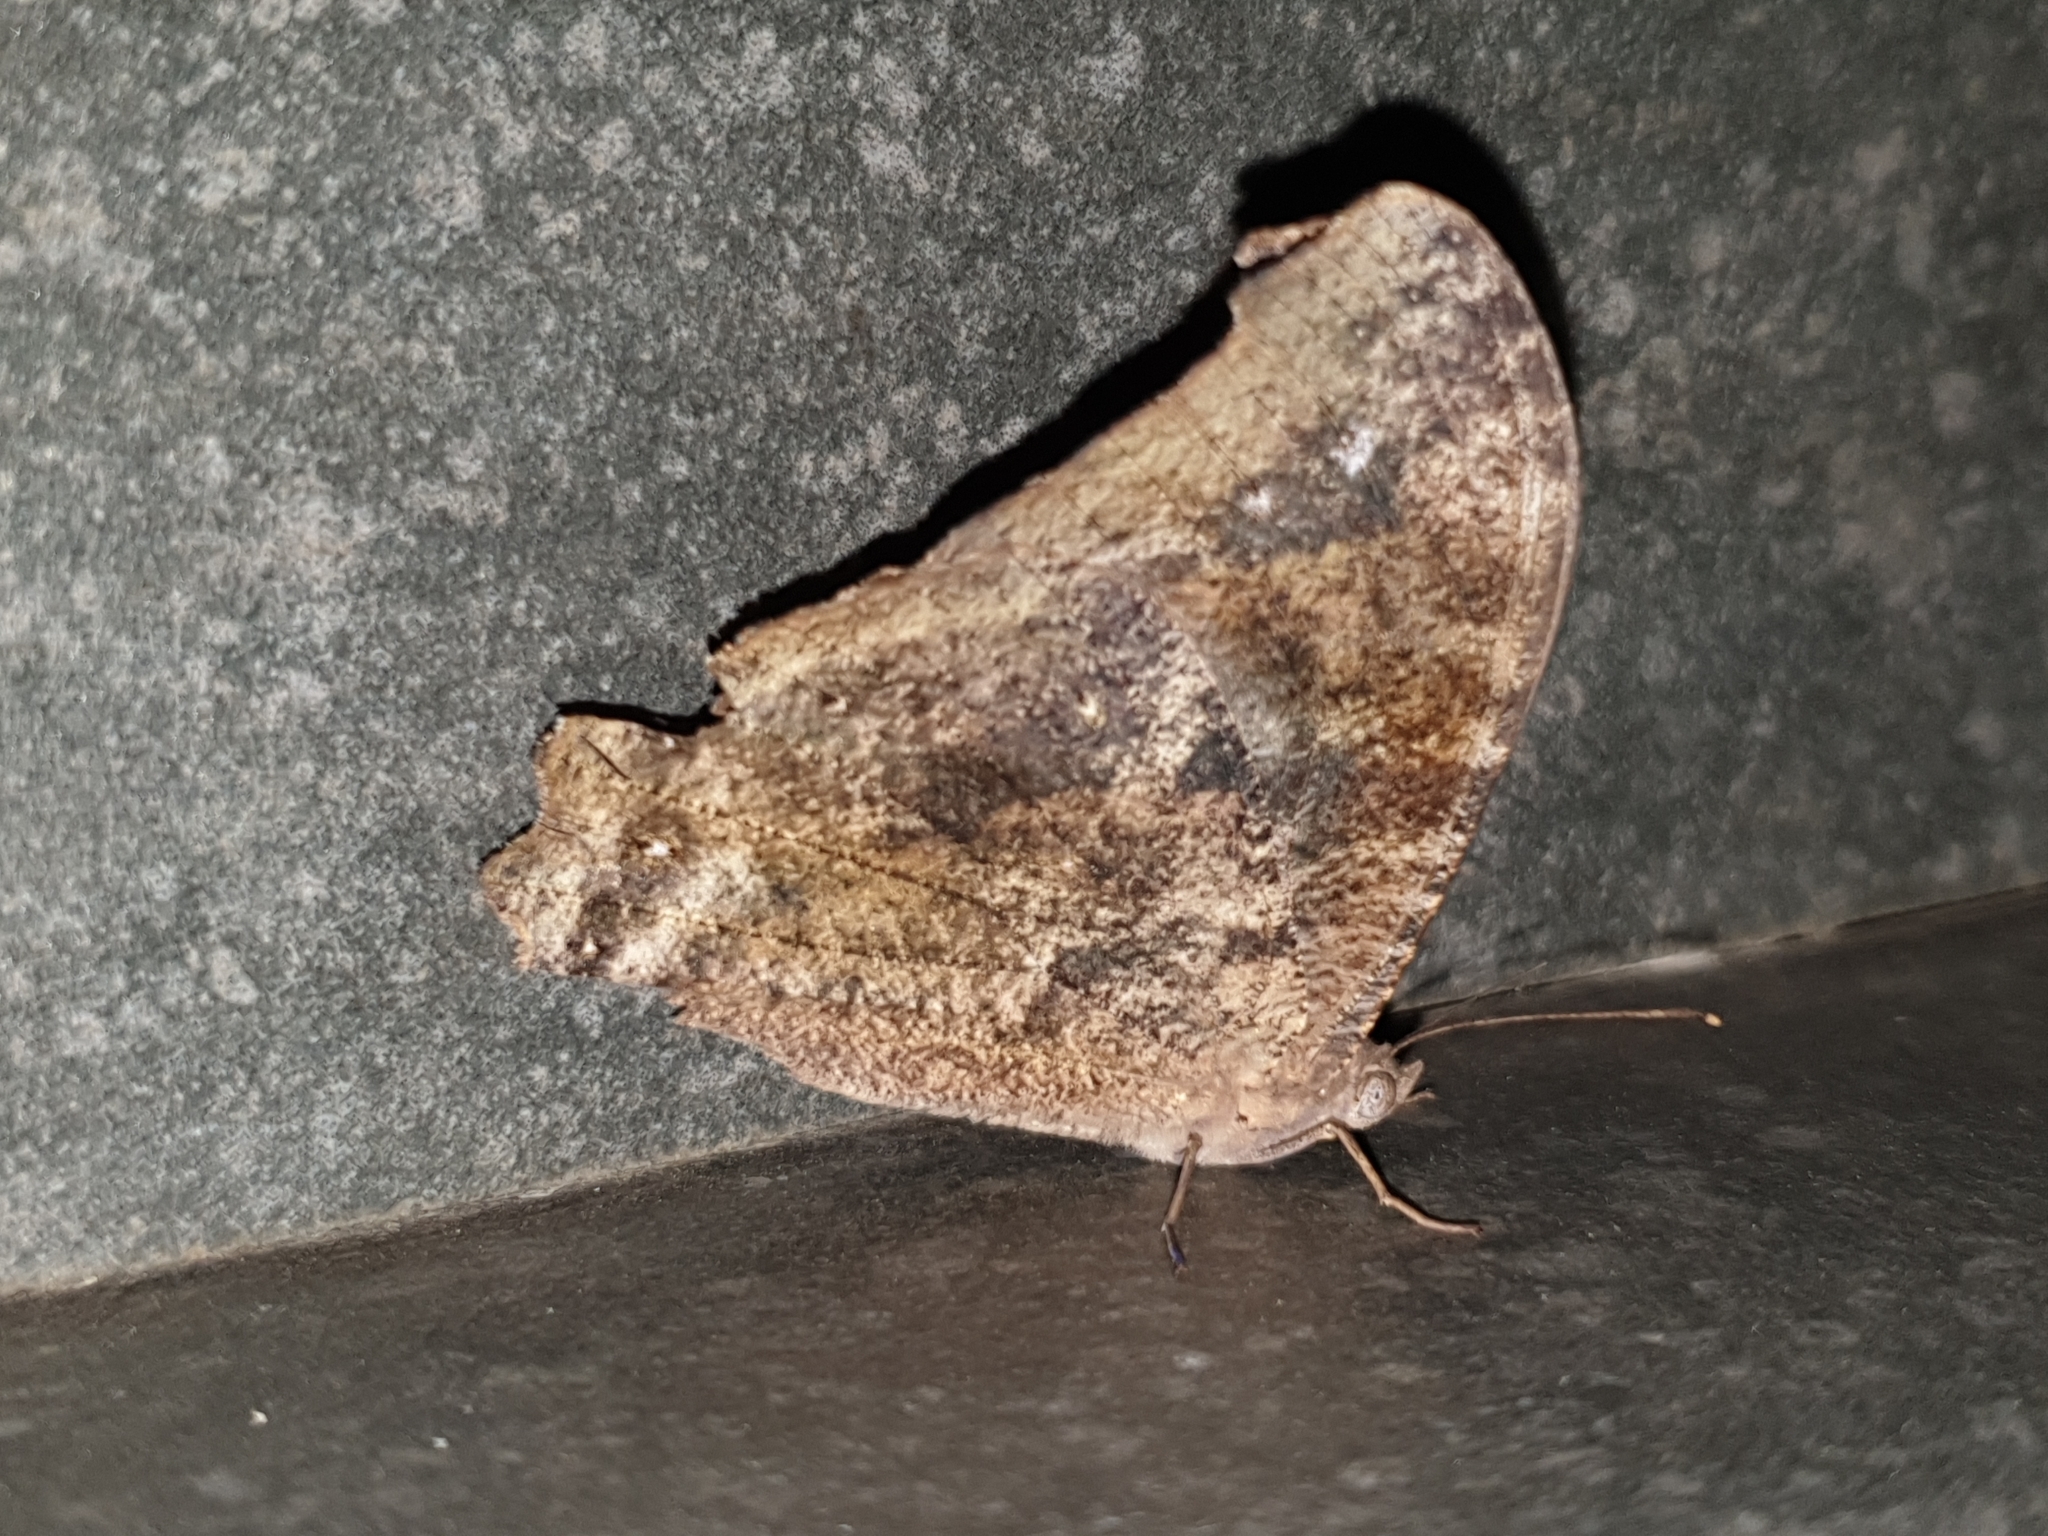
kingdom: Animalia
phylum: Arthropoda
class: Insecta
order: Lepidoptera
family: Nymphalidae
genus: Melanitis
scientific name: Melanitis leda
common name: Twilight brown
